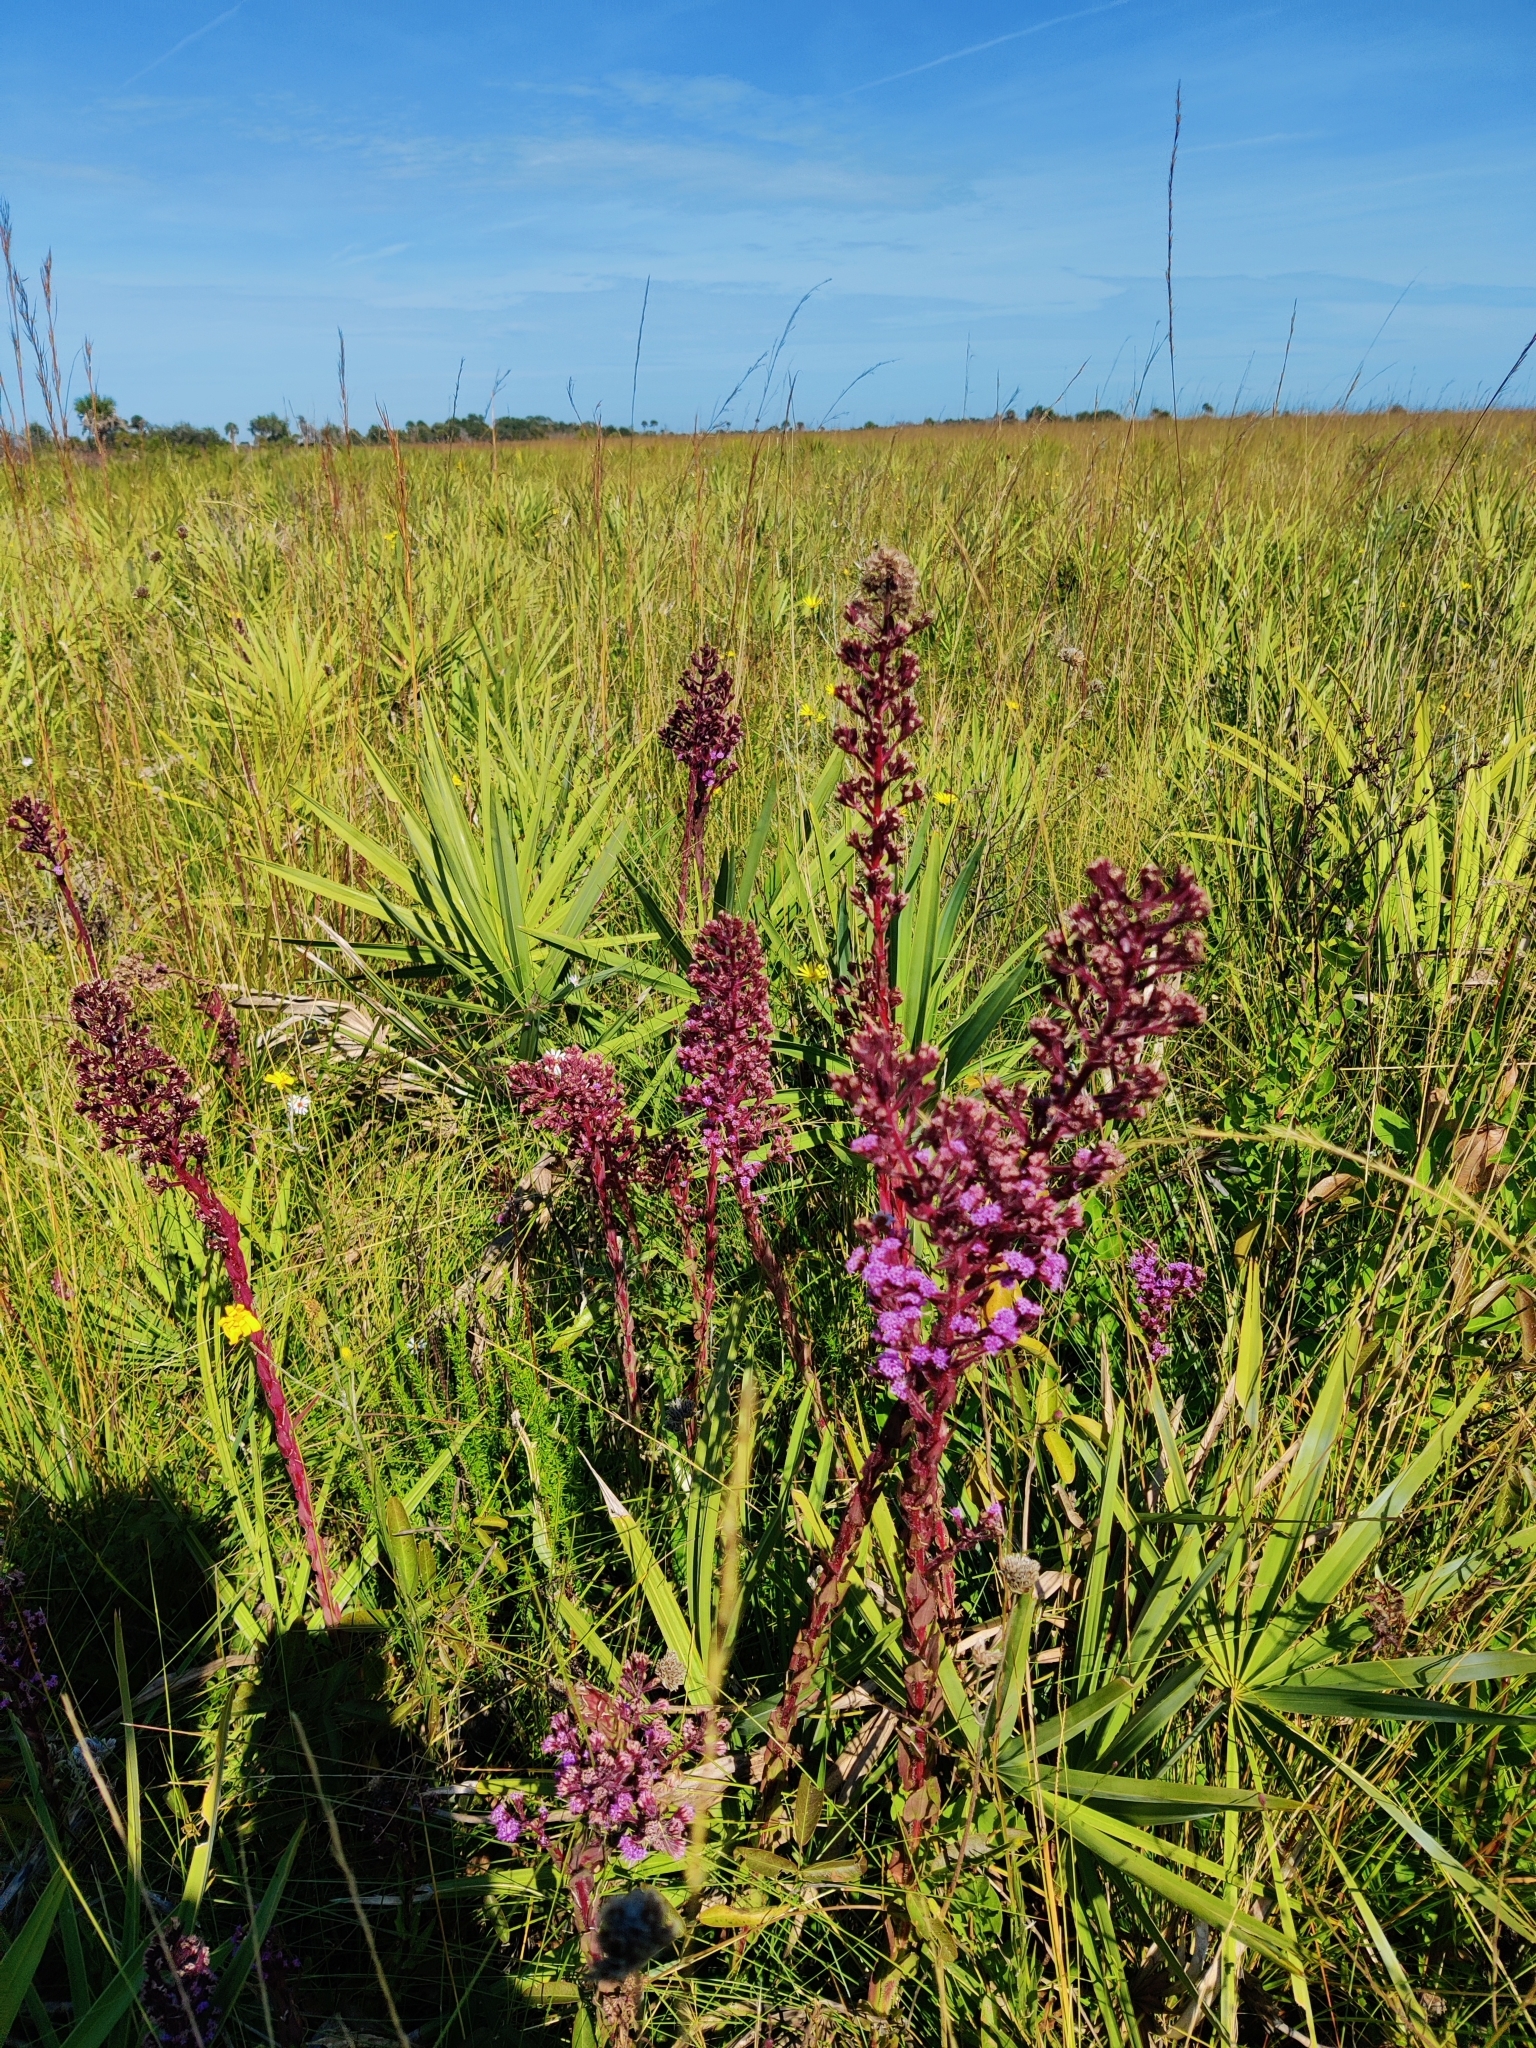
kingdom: Plantae
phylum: Tracheophyta
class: Magnoliopsida
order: Asterales
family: Asteraceae
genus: Carphephorus
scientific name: Carphephorus paniculatus
